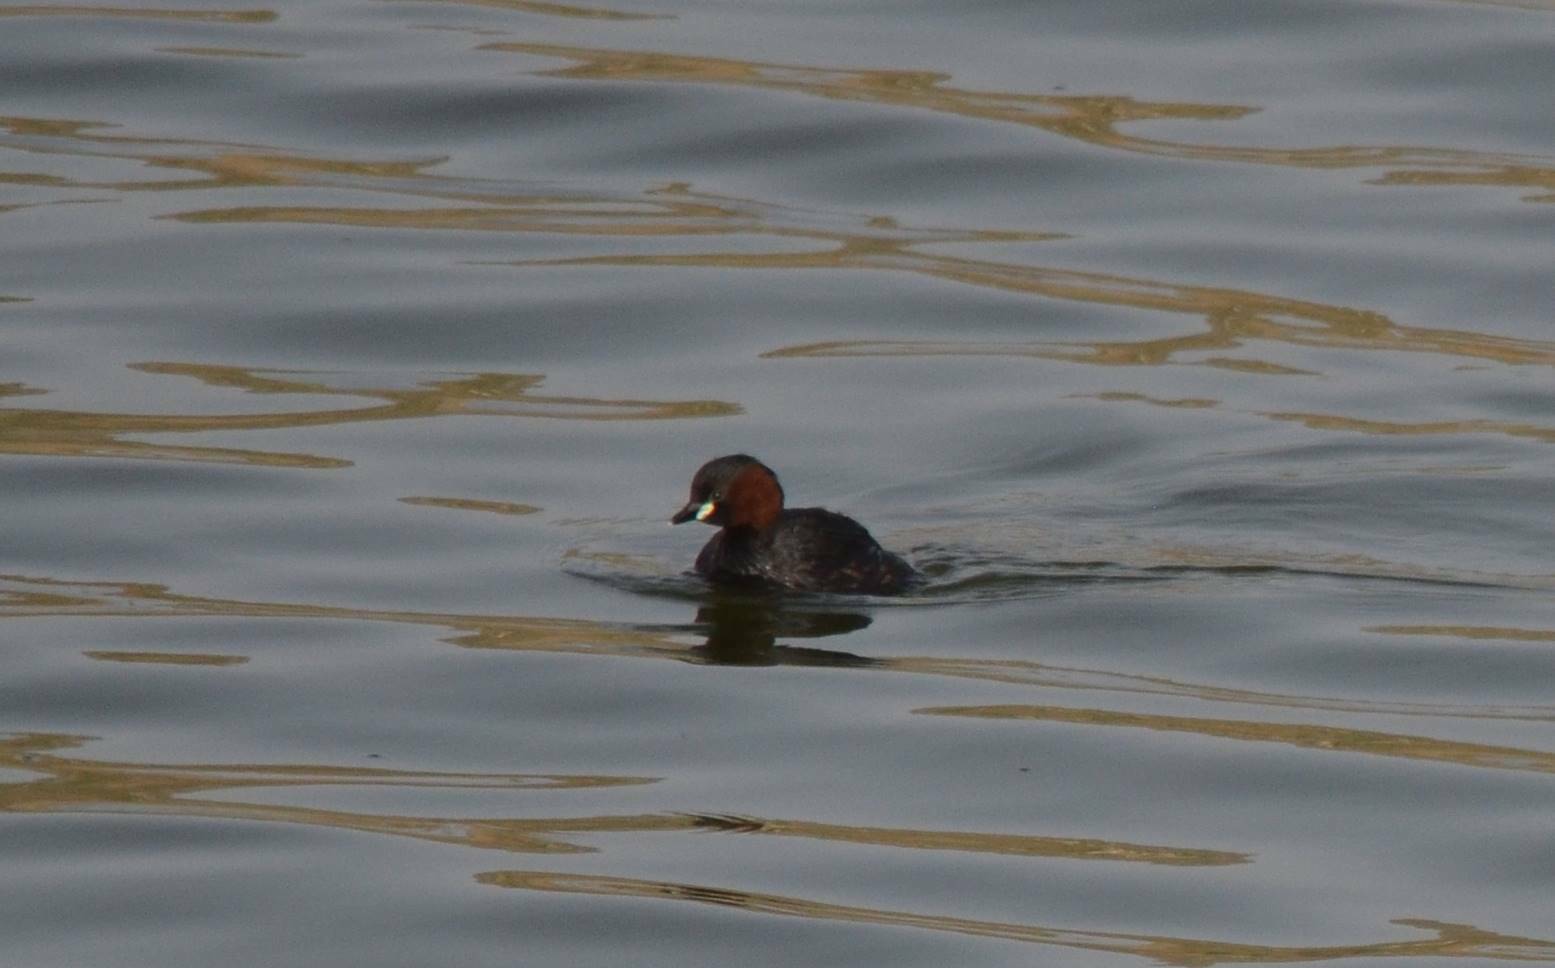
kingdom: Animalia
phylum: Chordata
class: Aves
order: Podicipediformes
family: Podicipedidae
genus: Tachybaptus
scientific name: Tachybaptus ruficollis
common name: Little grebe
